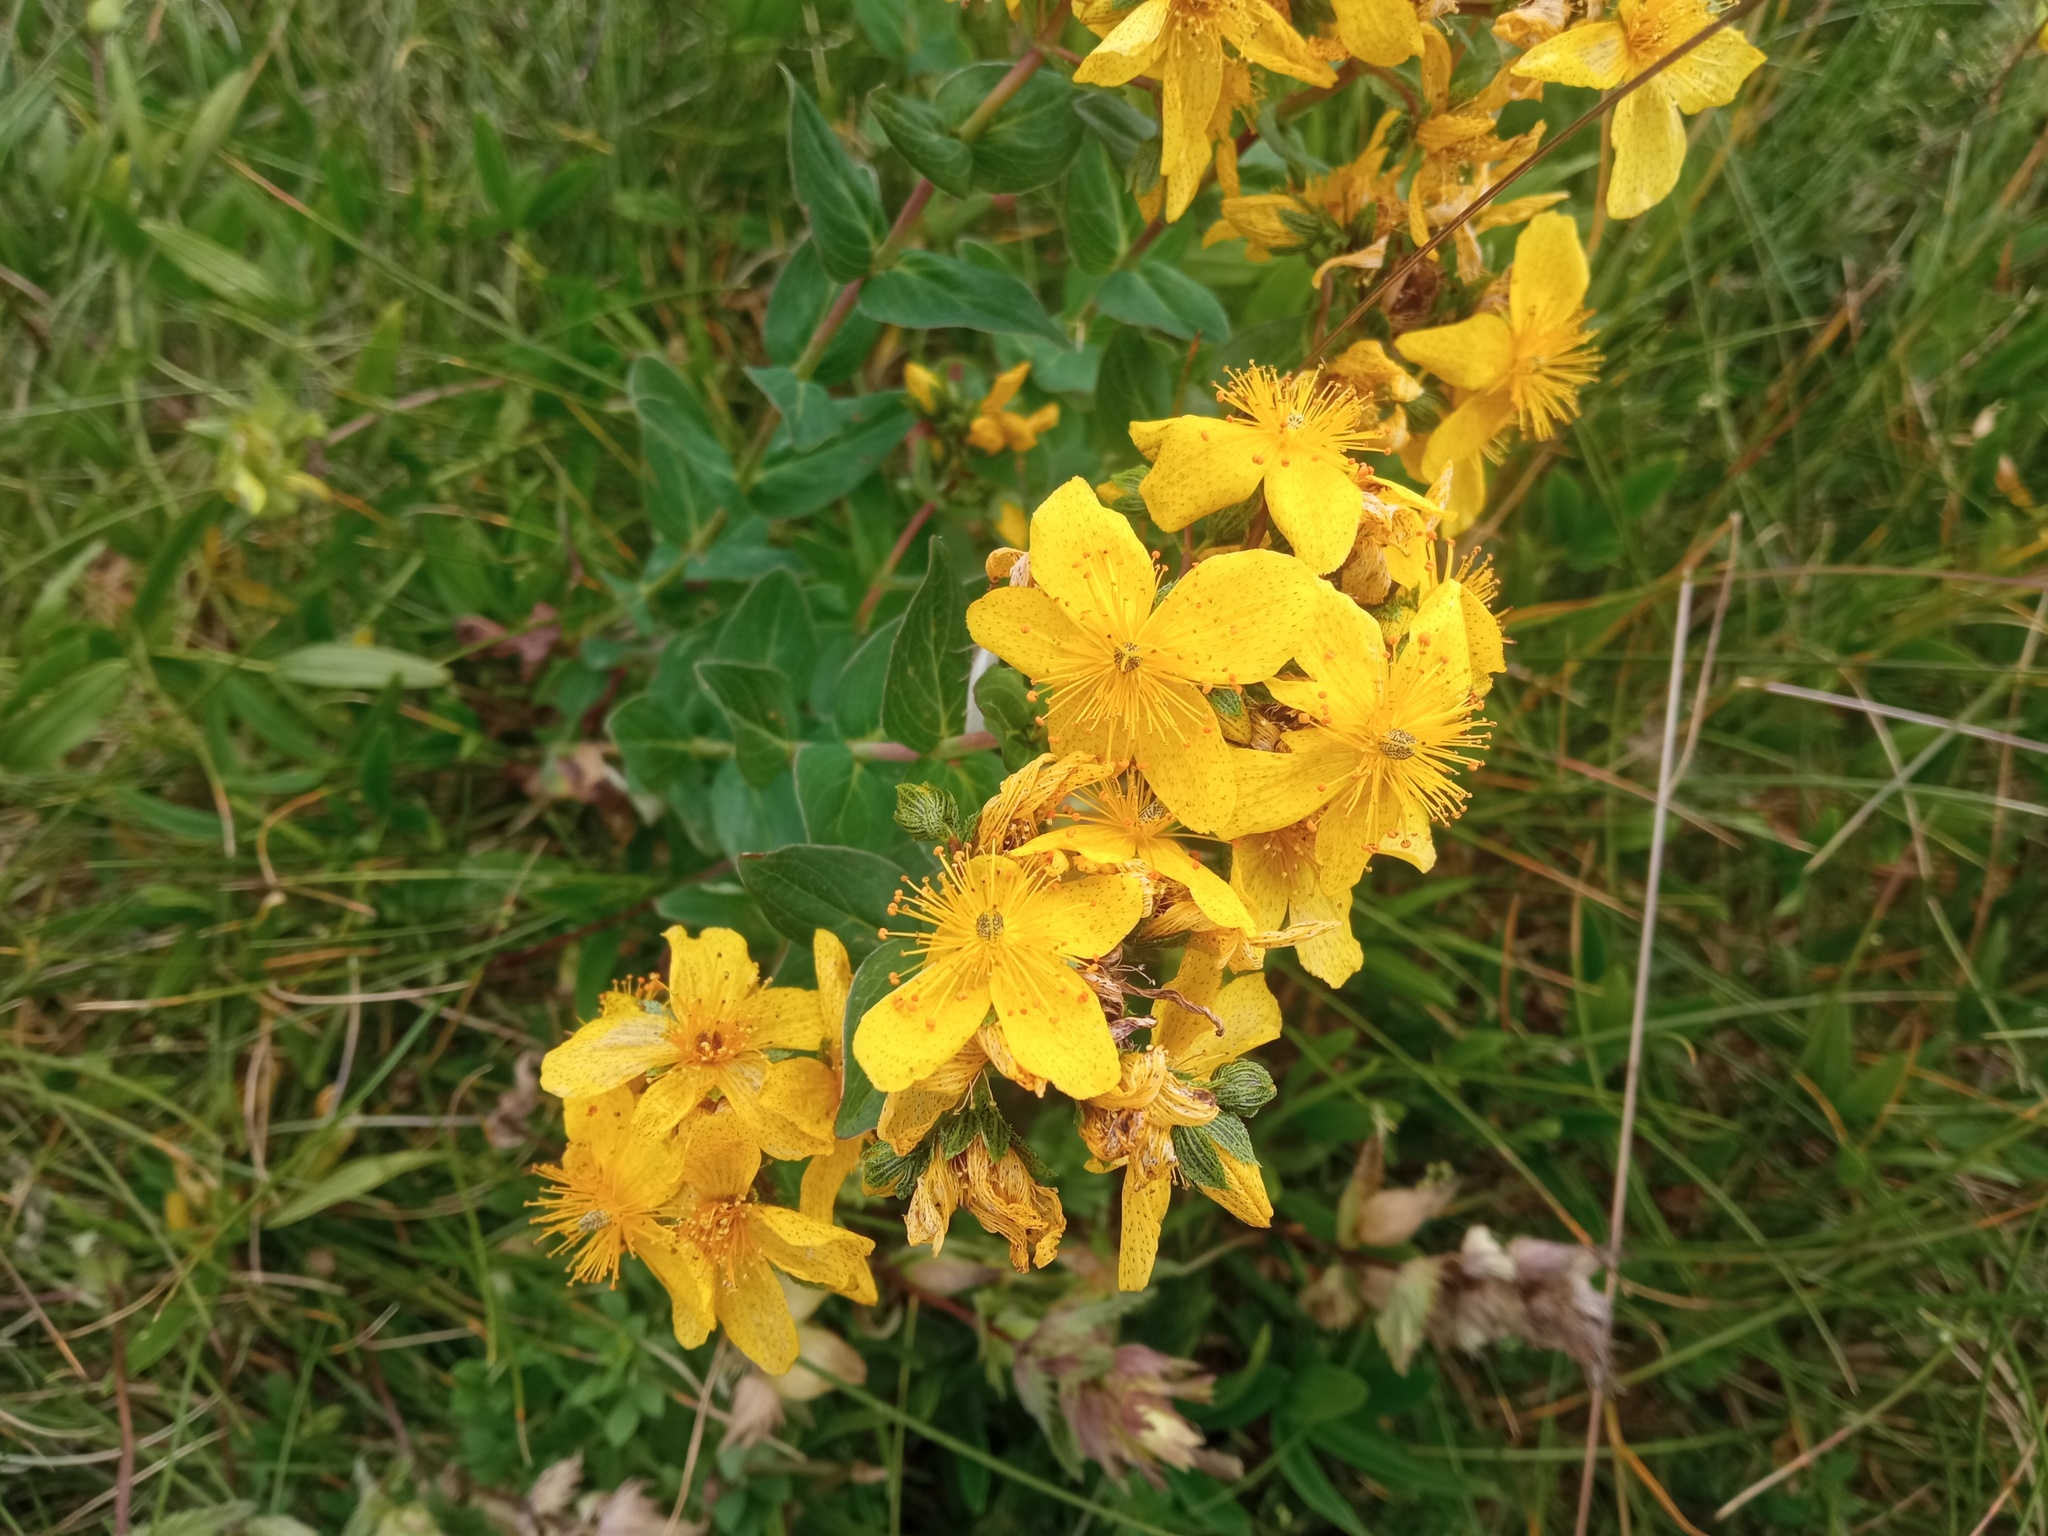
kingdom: Plantae
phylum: Tracheophyta
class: Magnoliopsida
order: Malpighiales
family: Hypericaceae
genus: Hypericum
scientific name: Hypericum richeri
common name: Alpine st john's-wort
